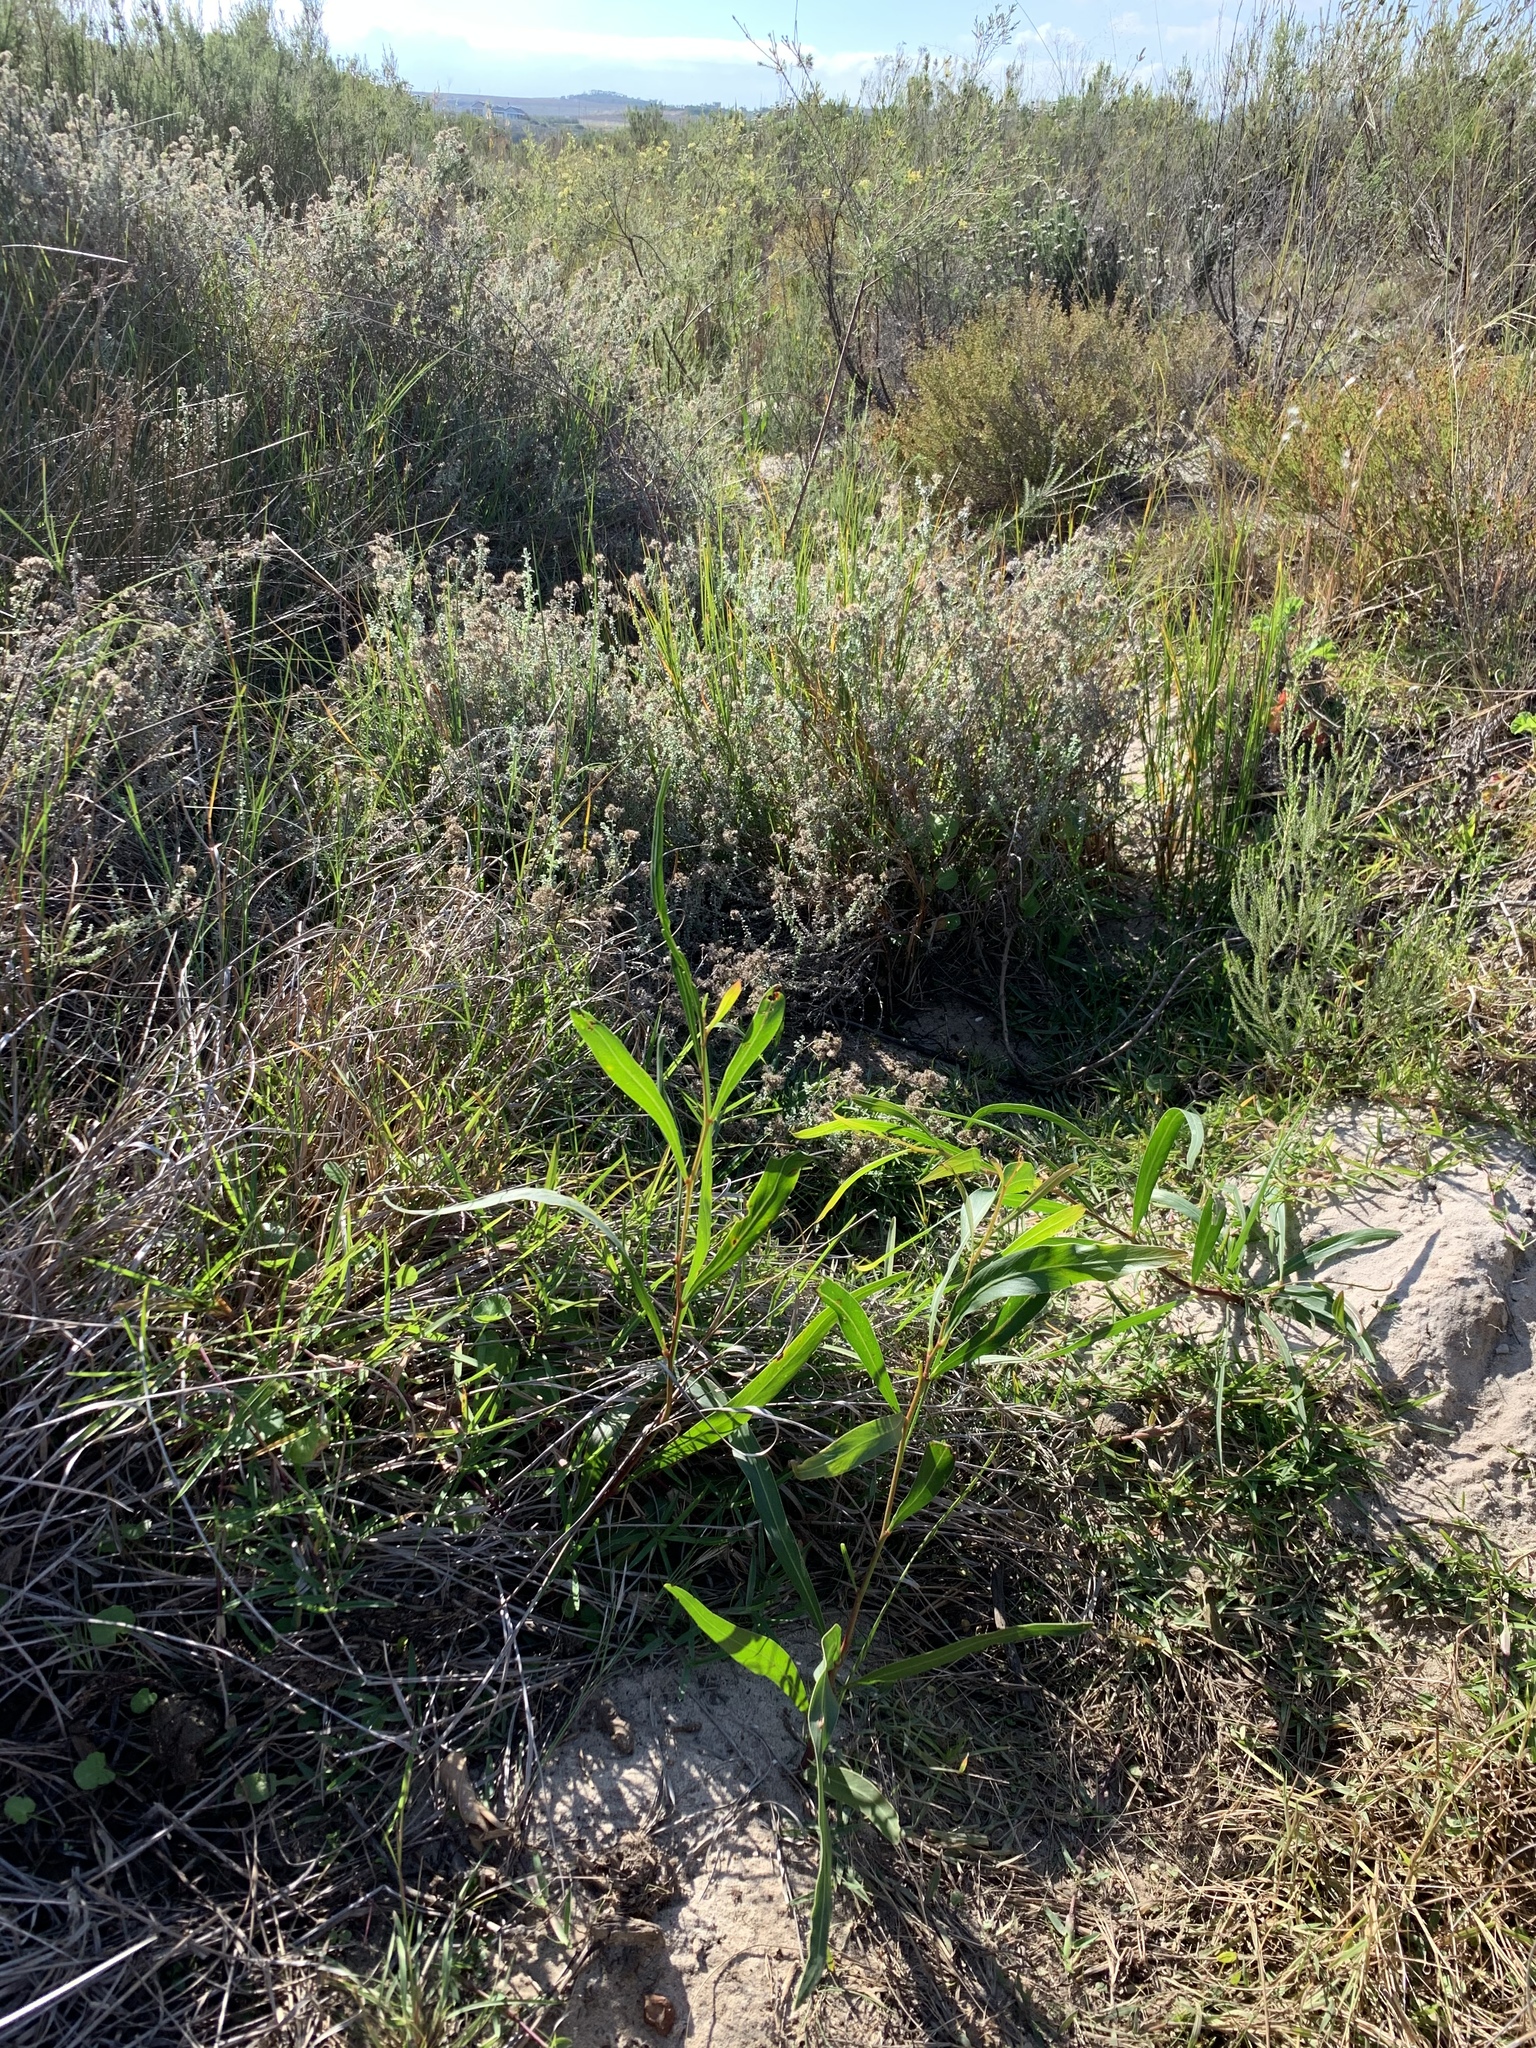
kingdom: Plantae
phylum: Tracheophyta
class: Magnoliopsida
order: Fabales
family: Fabaceae
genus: Acacia
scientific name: Acacia saligna
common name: Orange wattle
